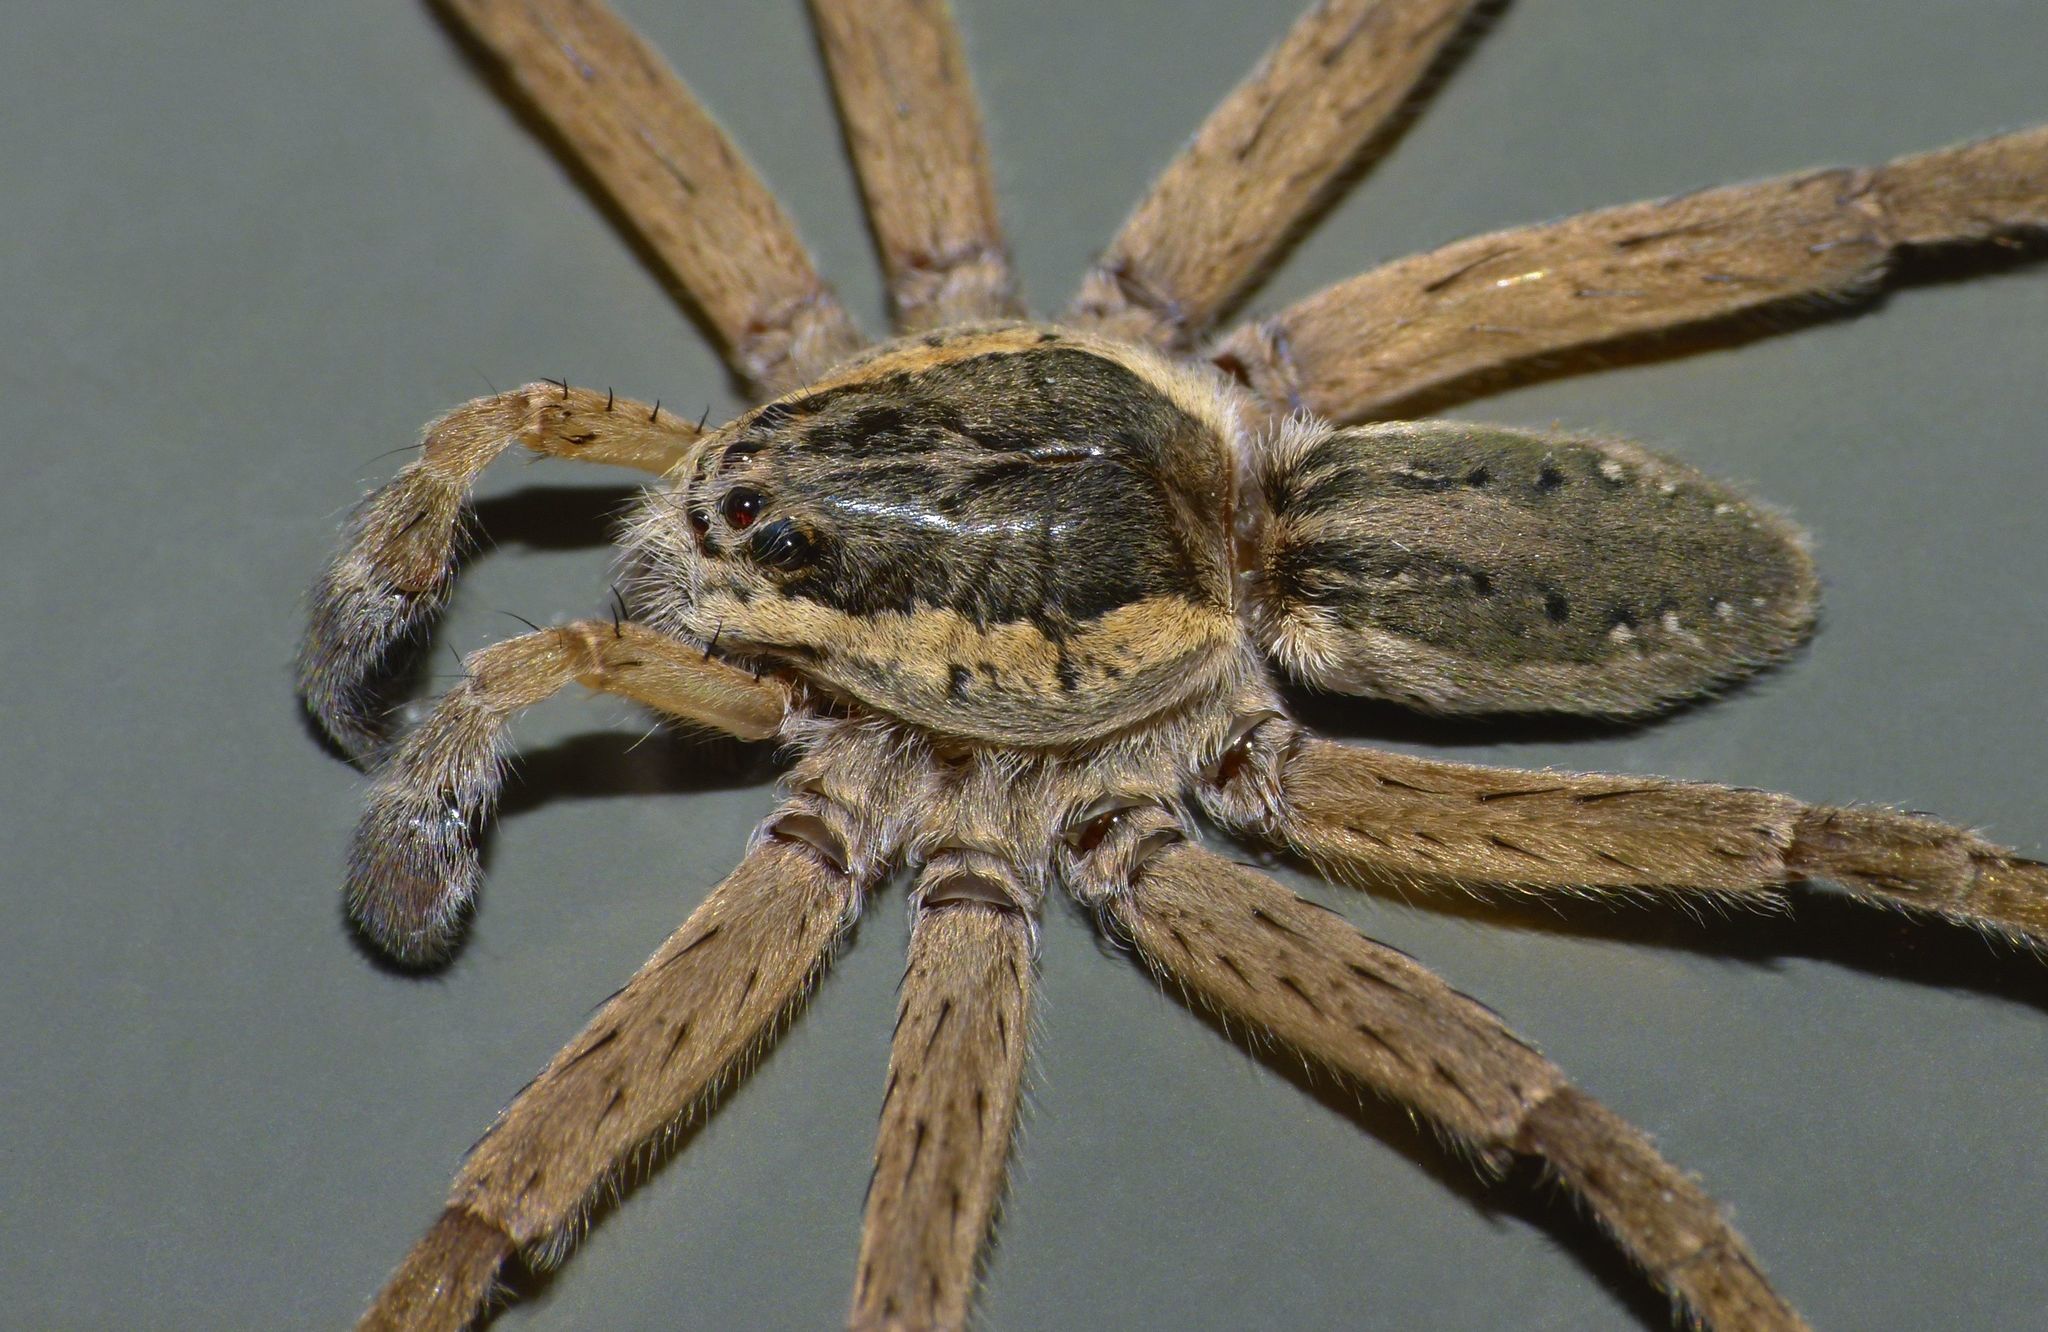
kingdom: Animalia
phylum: Arthropoda
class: Arachnida
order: Araneae
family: Pisauridae
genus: Dolomedes
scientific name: Dolomedes minor
